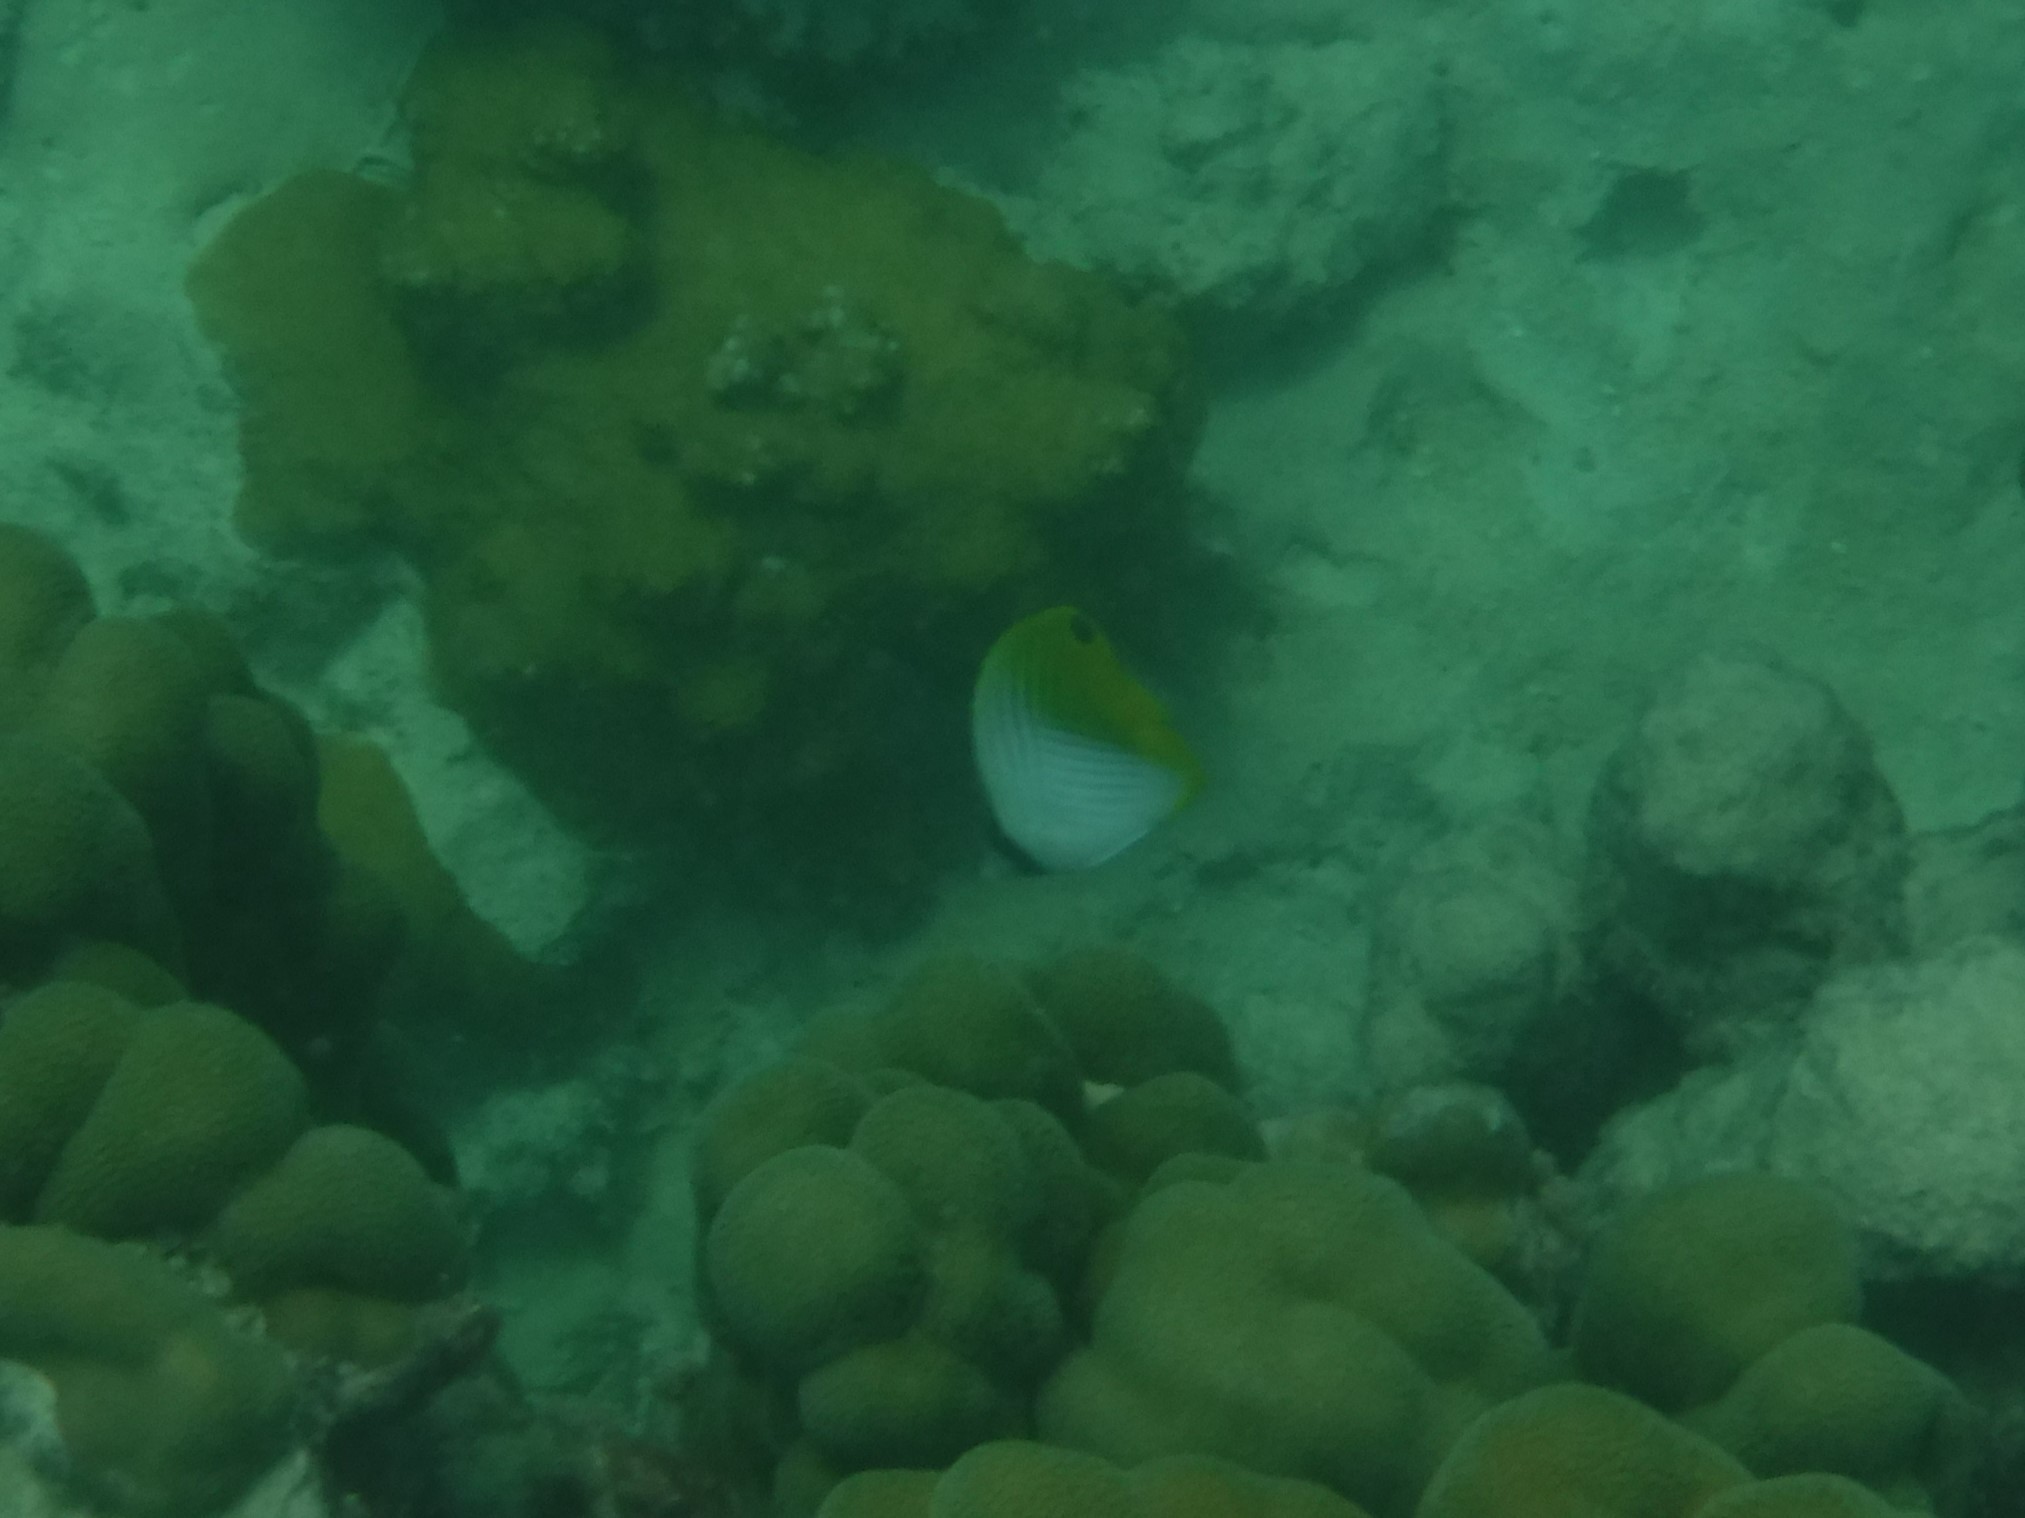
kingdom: Animalia
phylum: Chordata
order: Perciformes
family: Chaetodontidae
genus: Chaetodon
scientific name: Chaetodon auriga
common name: Threadfin butterflyfish
